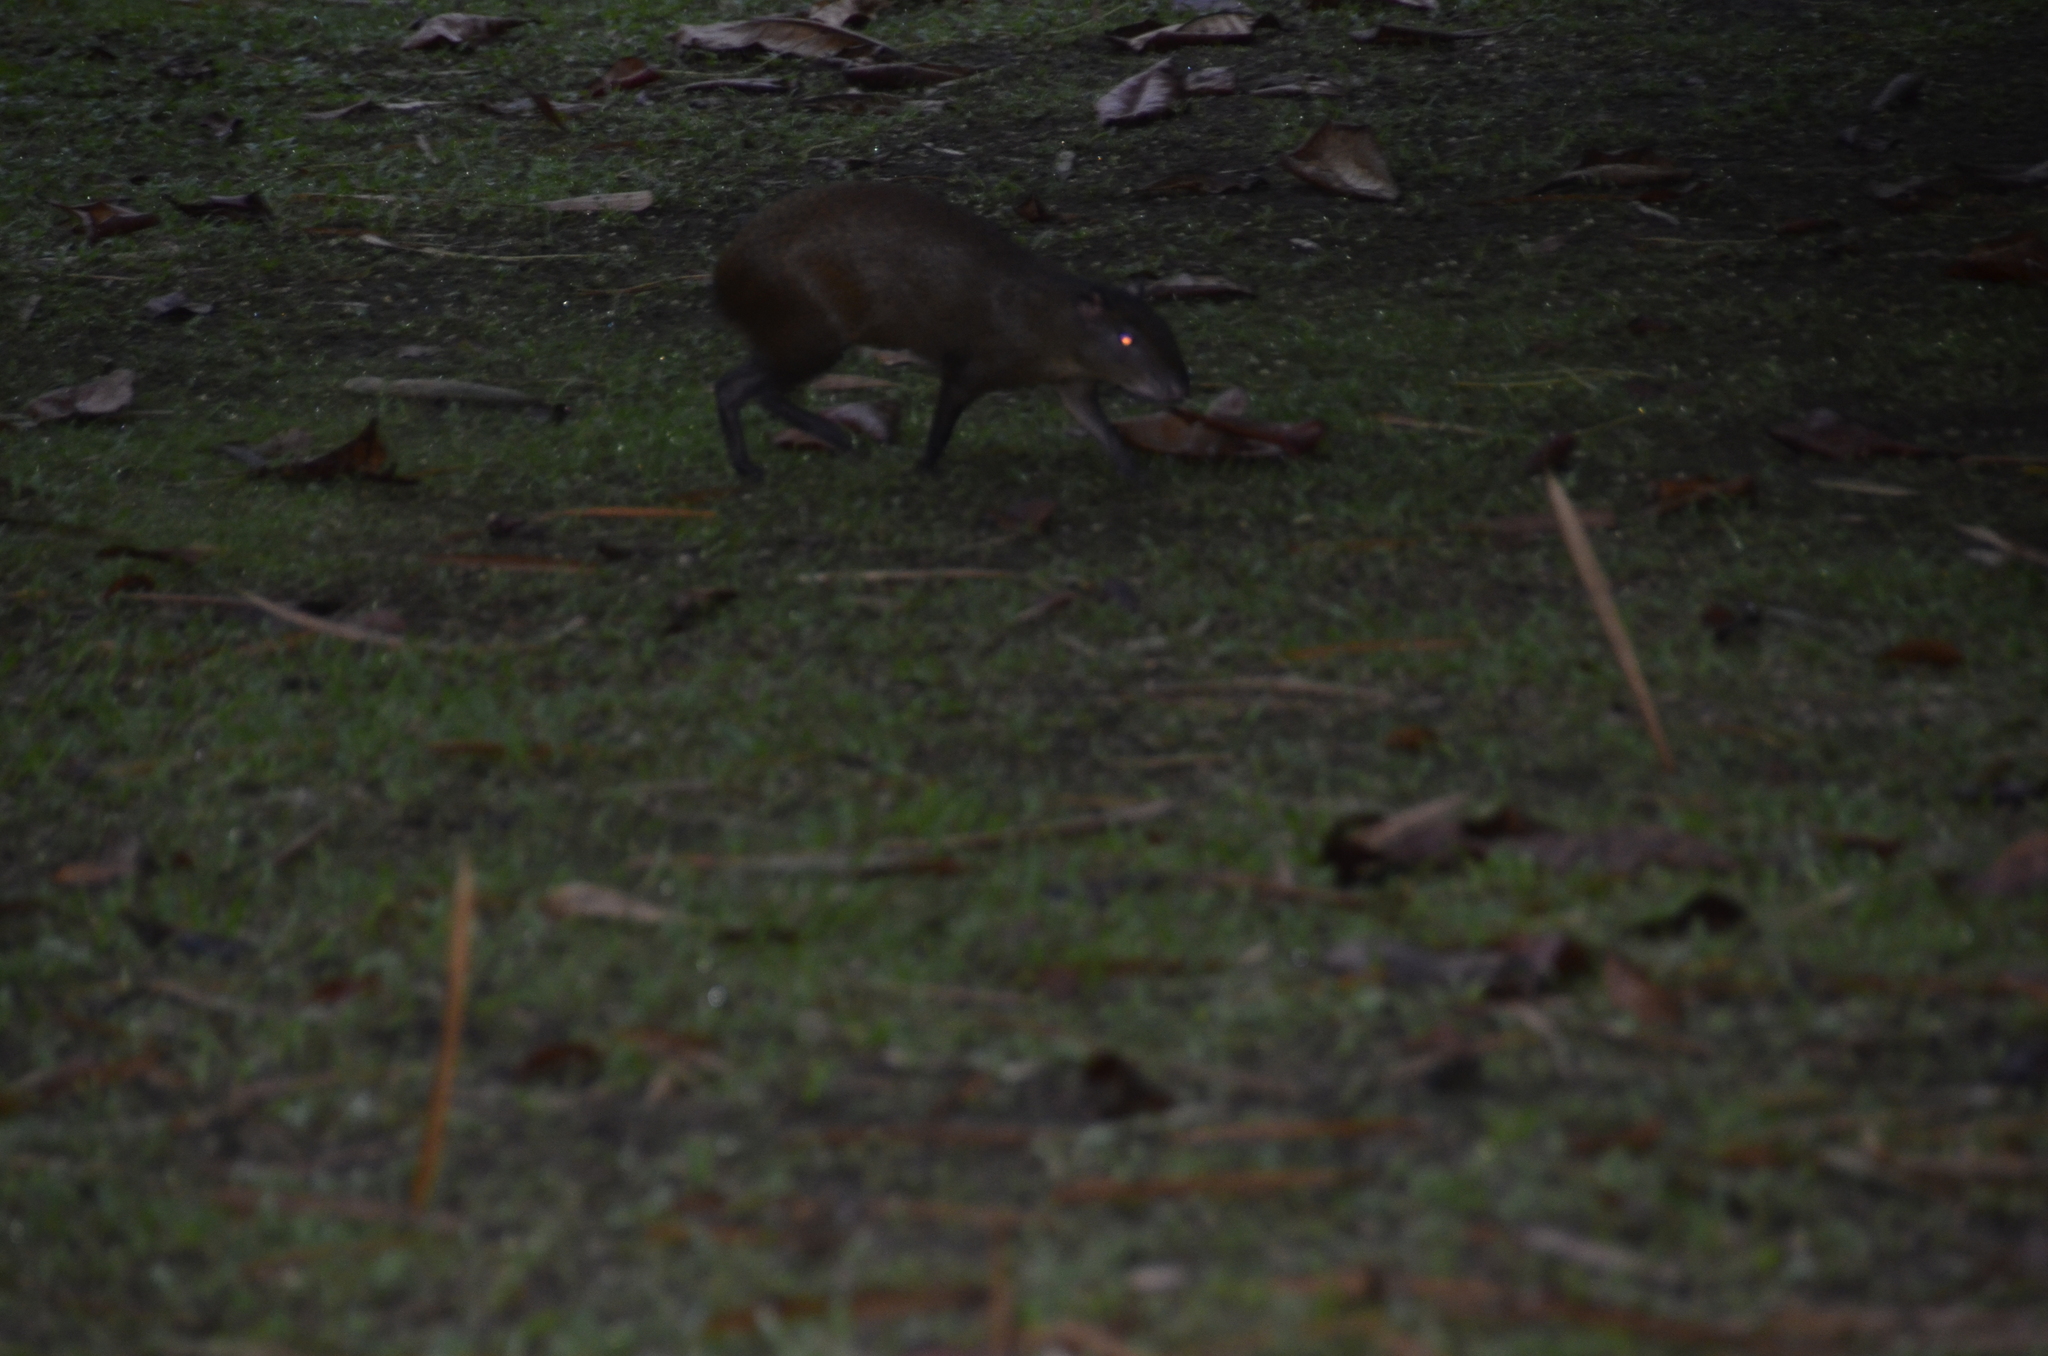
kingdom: Animalia
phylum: Chordata
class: Mammalia
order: Rodentia
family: Dasyproctidae
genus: Dasyprocta
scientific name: Dasyprocta punctata
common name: Central american agouti
